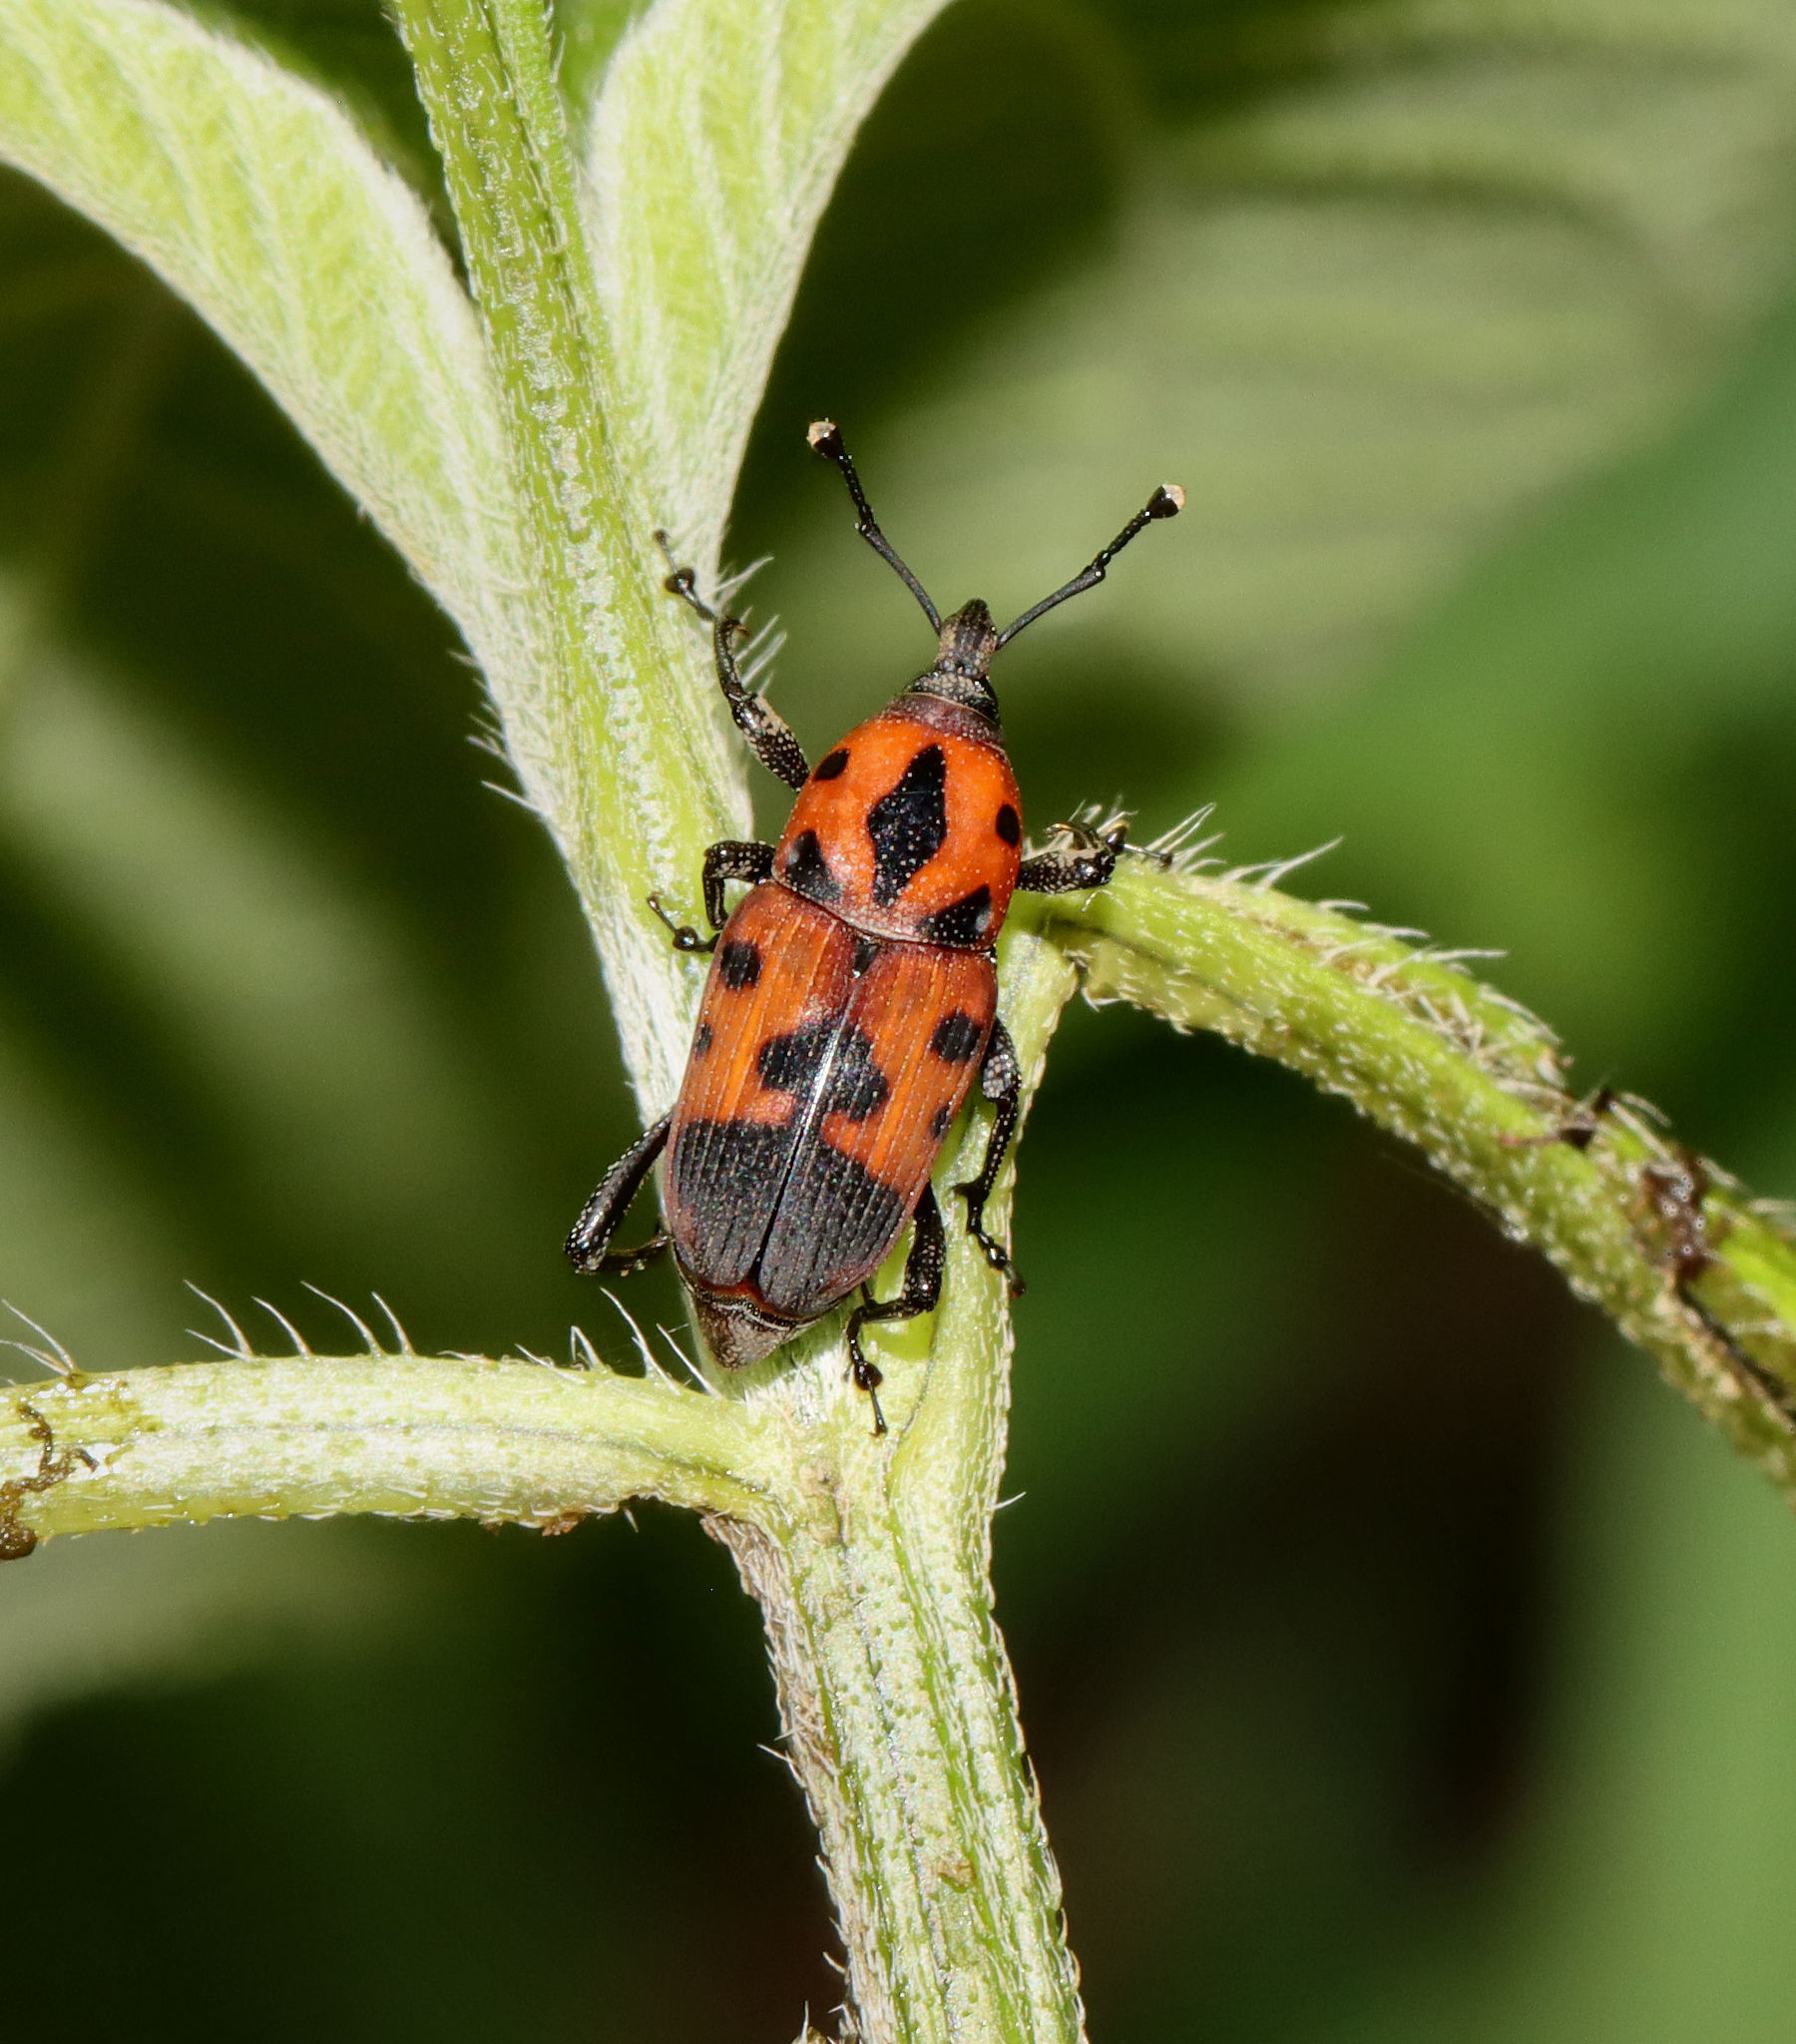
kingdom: Animalia
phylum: Arthropoda
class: Insecta
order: Coleoptera
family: Dryophthoridae
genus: Rhodobaenus
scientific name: Rhodobaenus quinquepunctatus
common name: Cocklebur weevil
